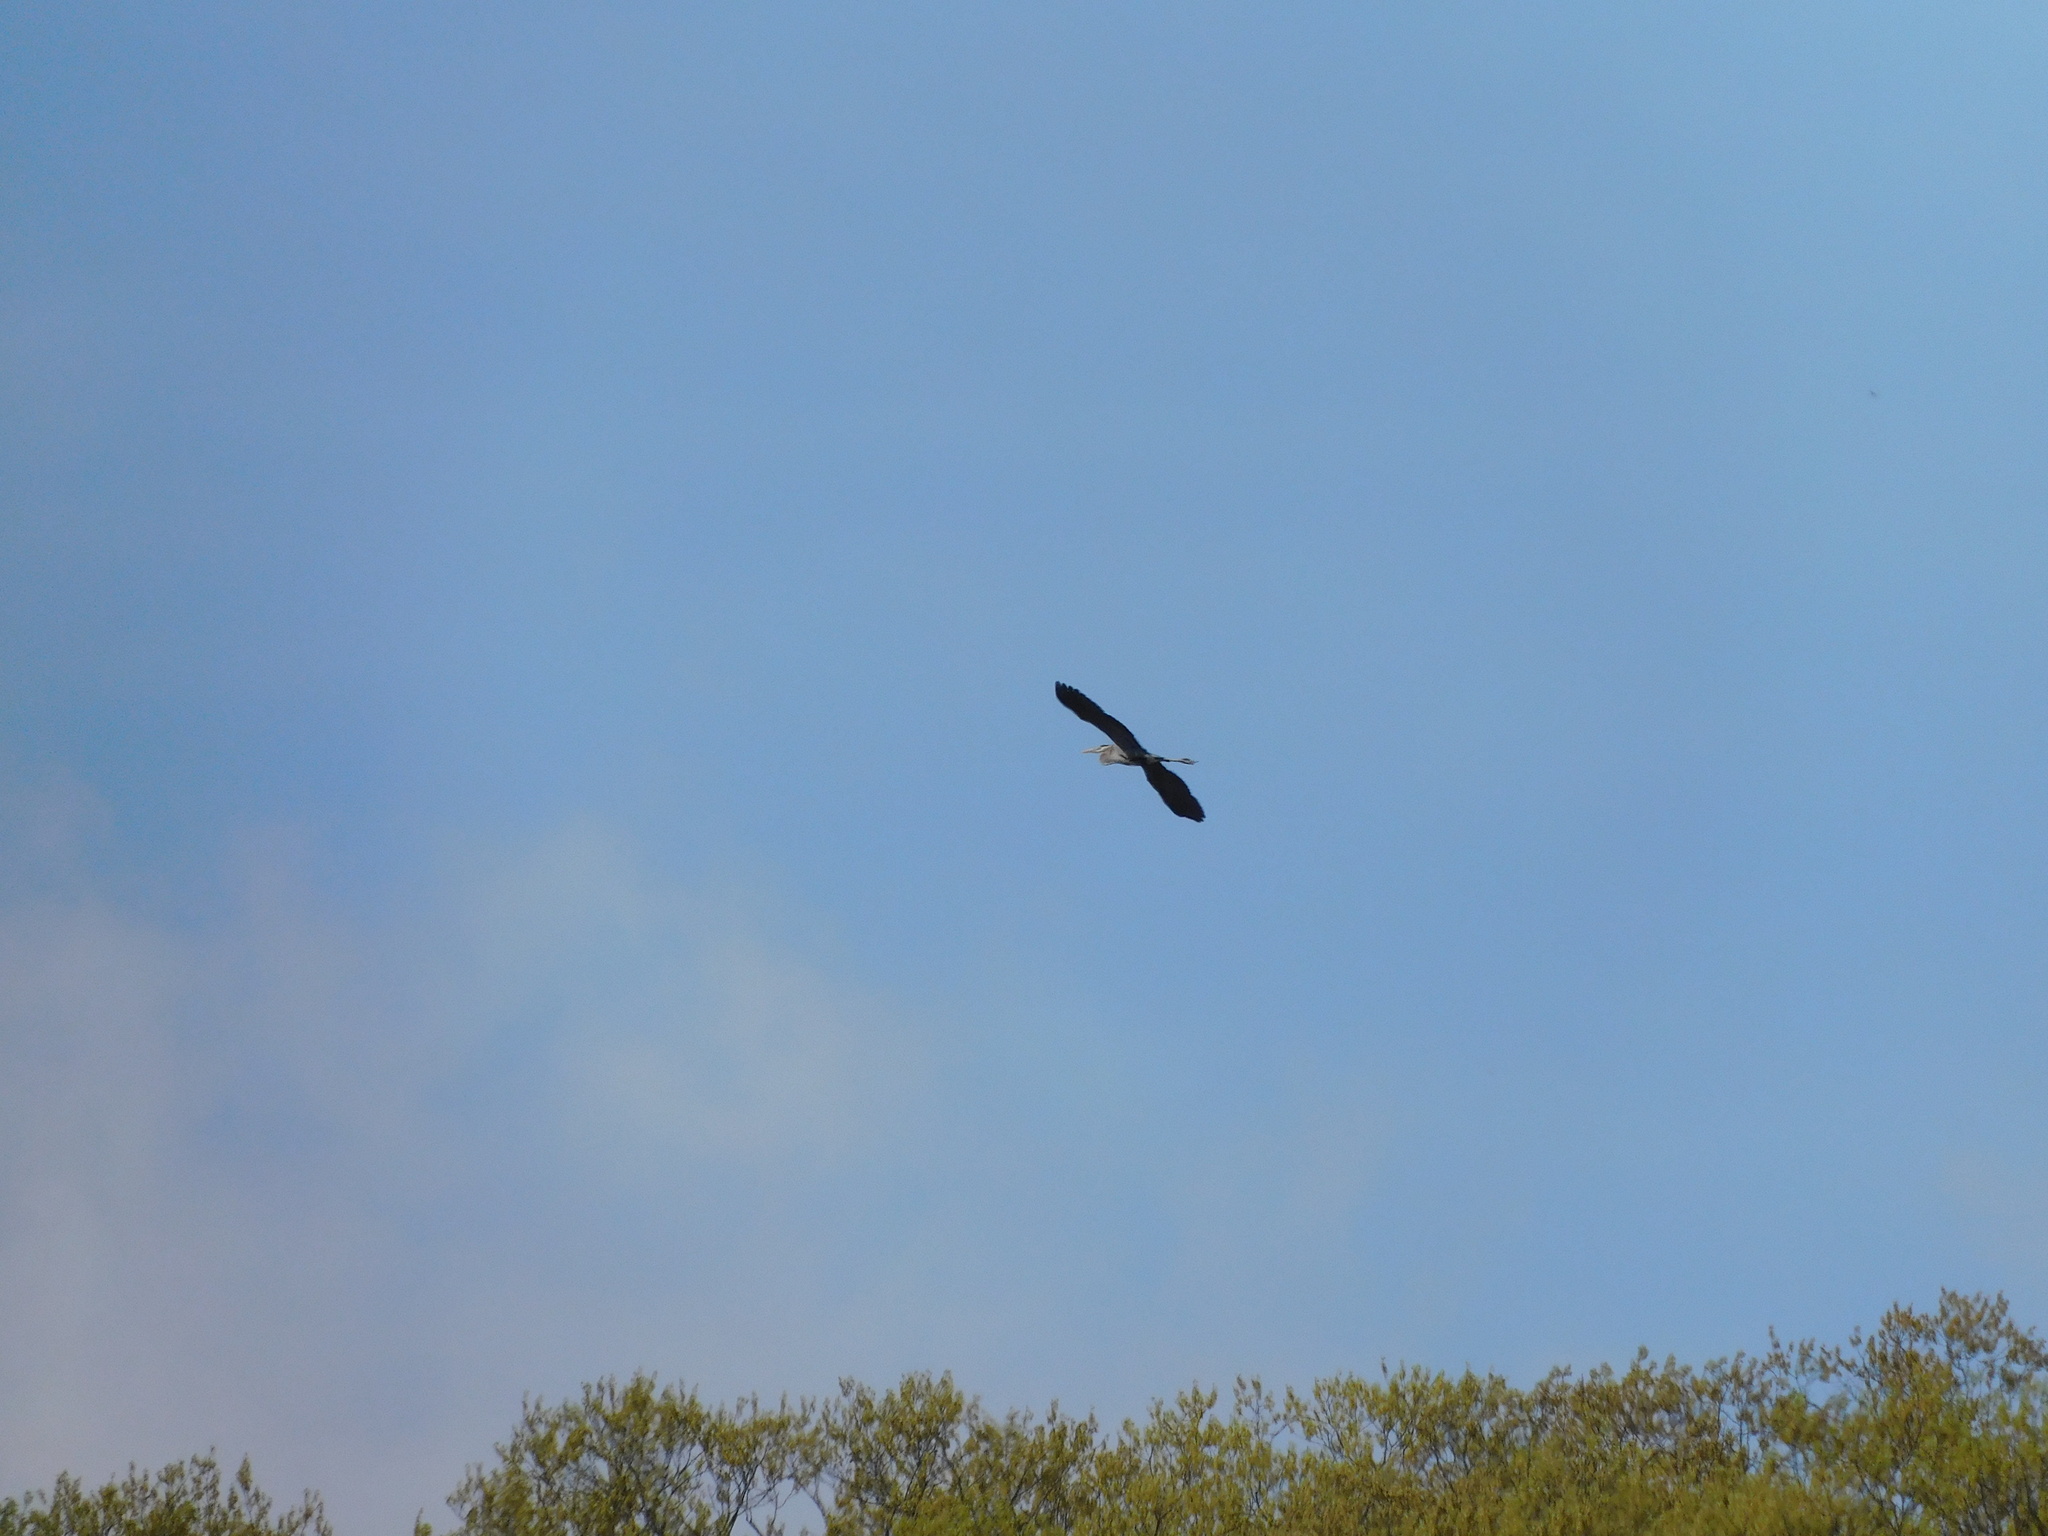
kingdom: Animalia
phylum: Chordata
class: Aves
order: Pelecaniformes
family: Ardeidae
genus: Ardea
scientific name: Ardea herodias
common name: Great blue heron
